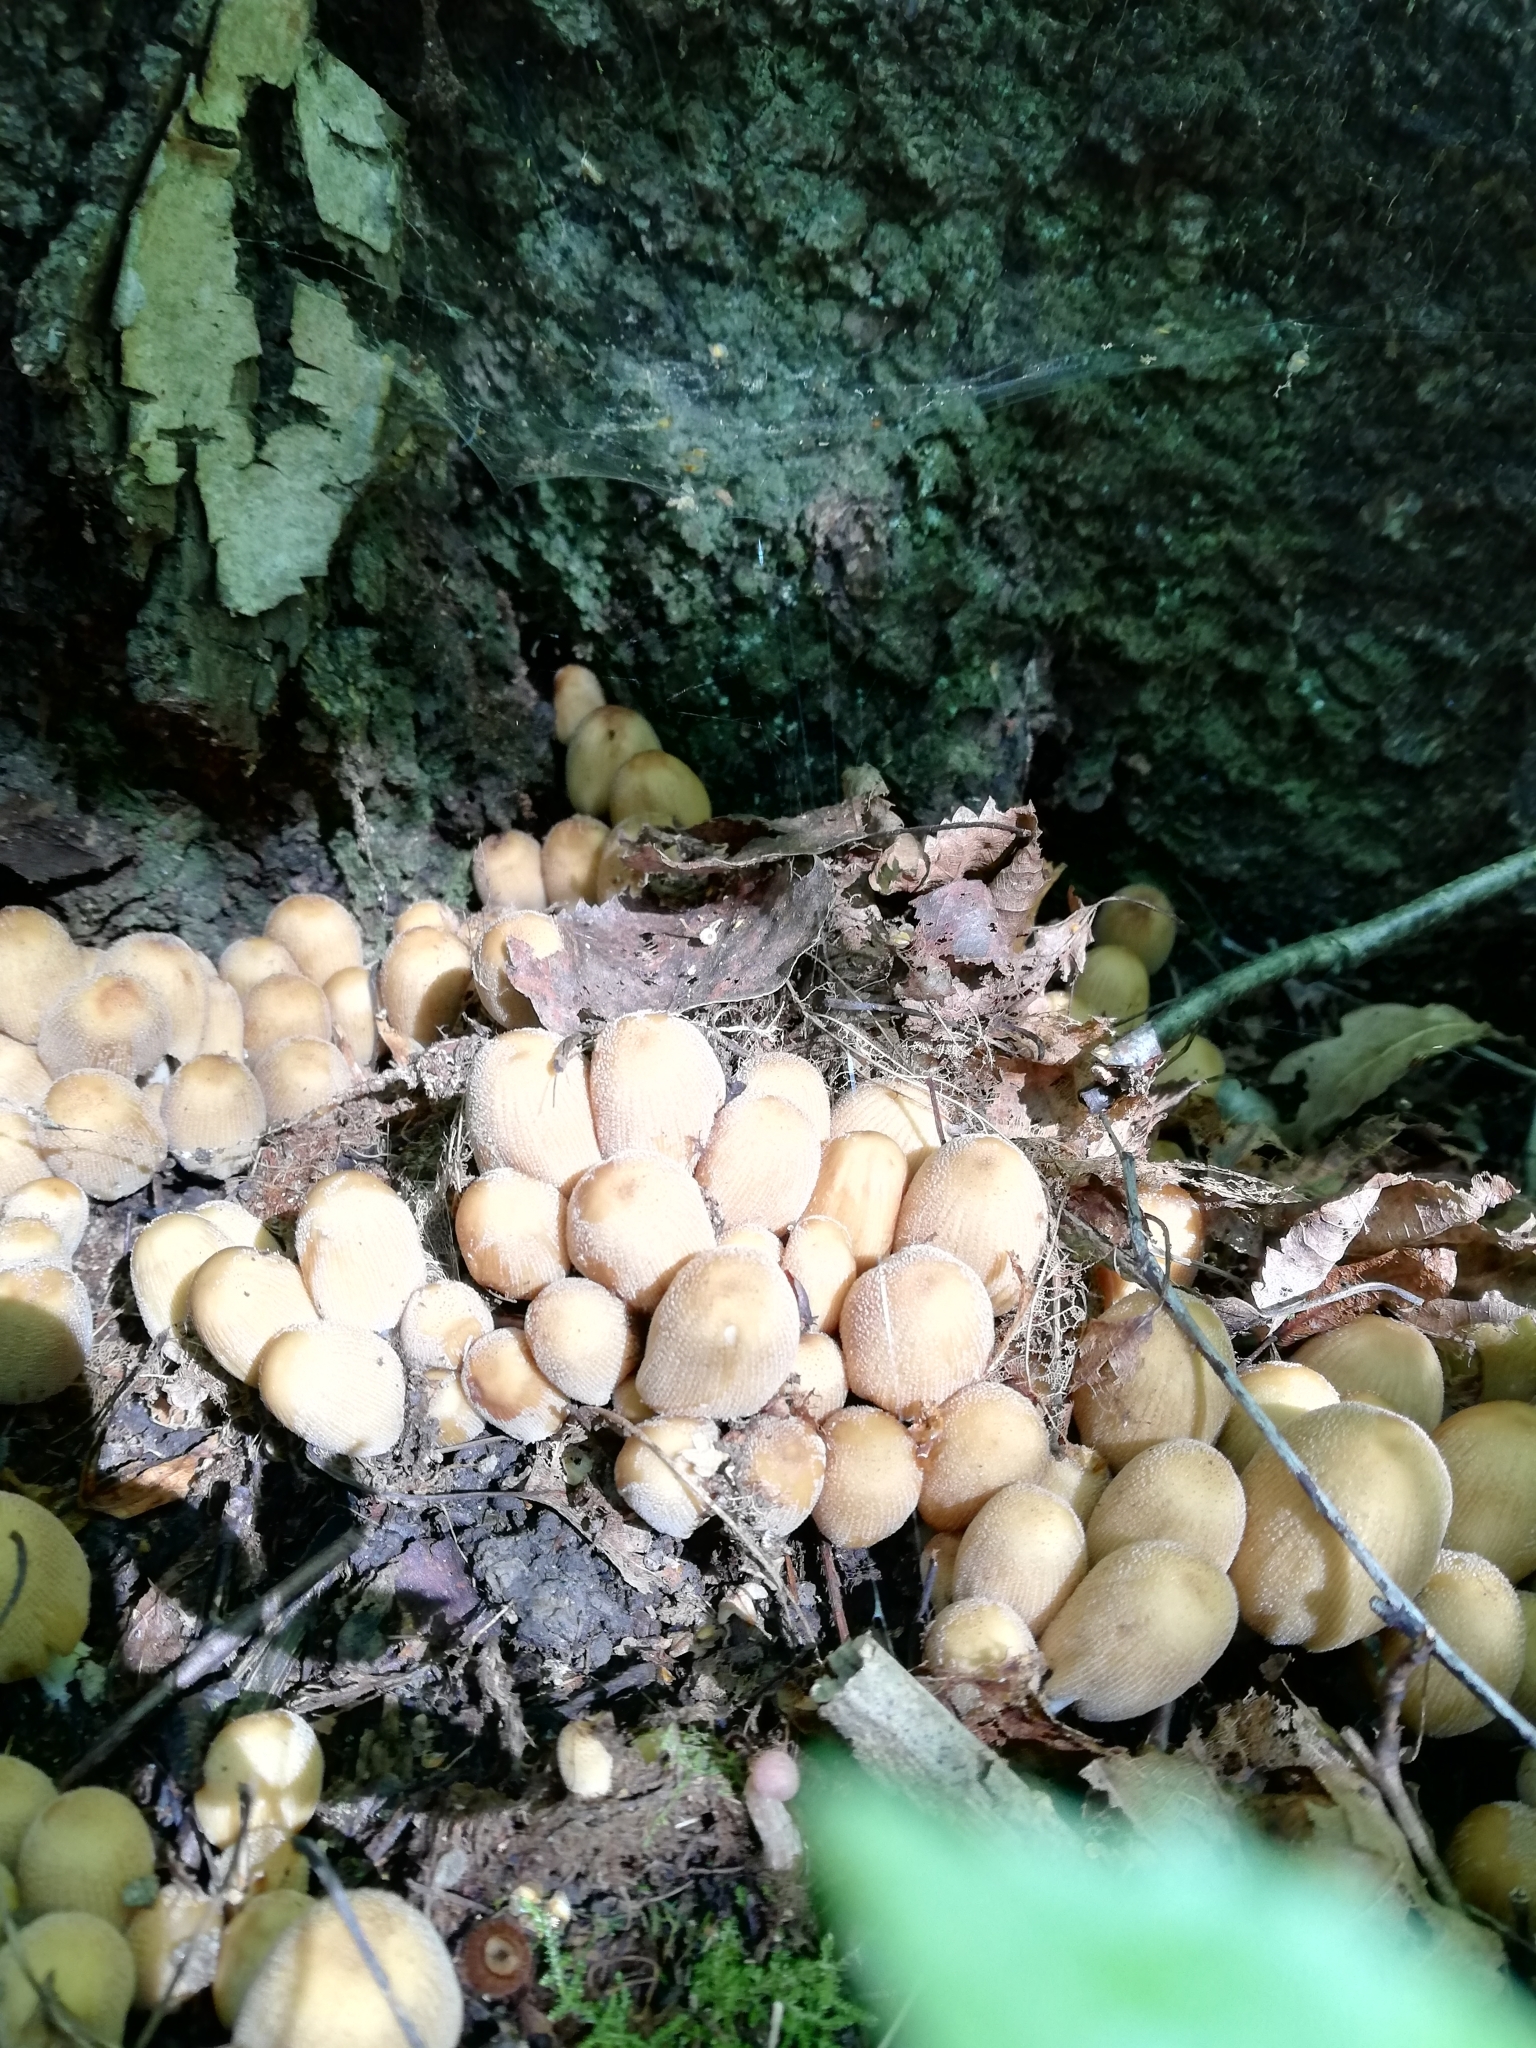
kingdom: Fungi
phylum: Basidiomycota
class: Agaricomycetes
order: Agaricales
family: Psathyrellaceae
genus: Coprinellus
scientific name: Coprinellus micaceus
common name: Glistening ink-cap
